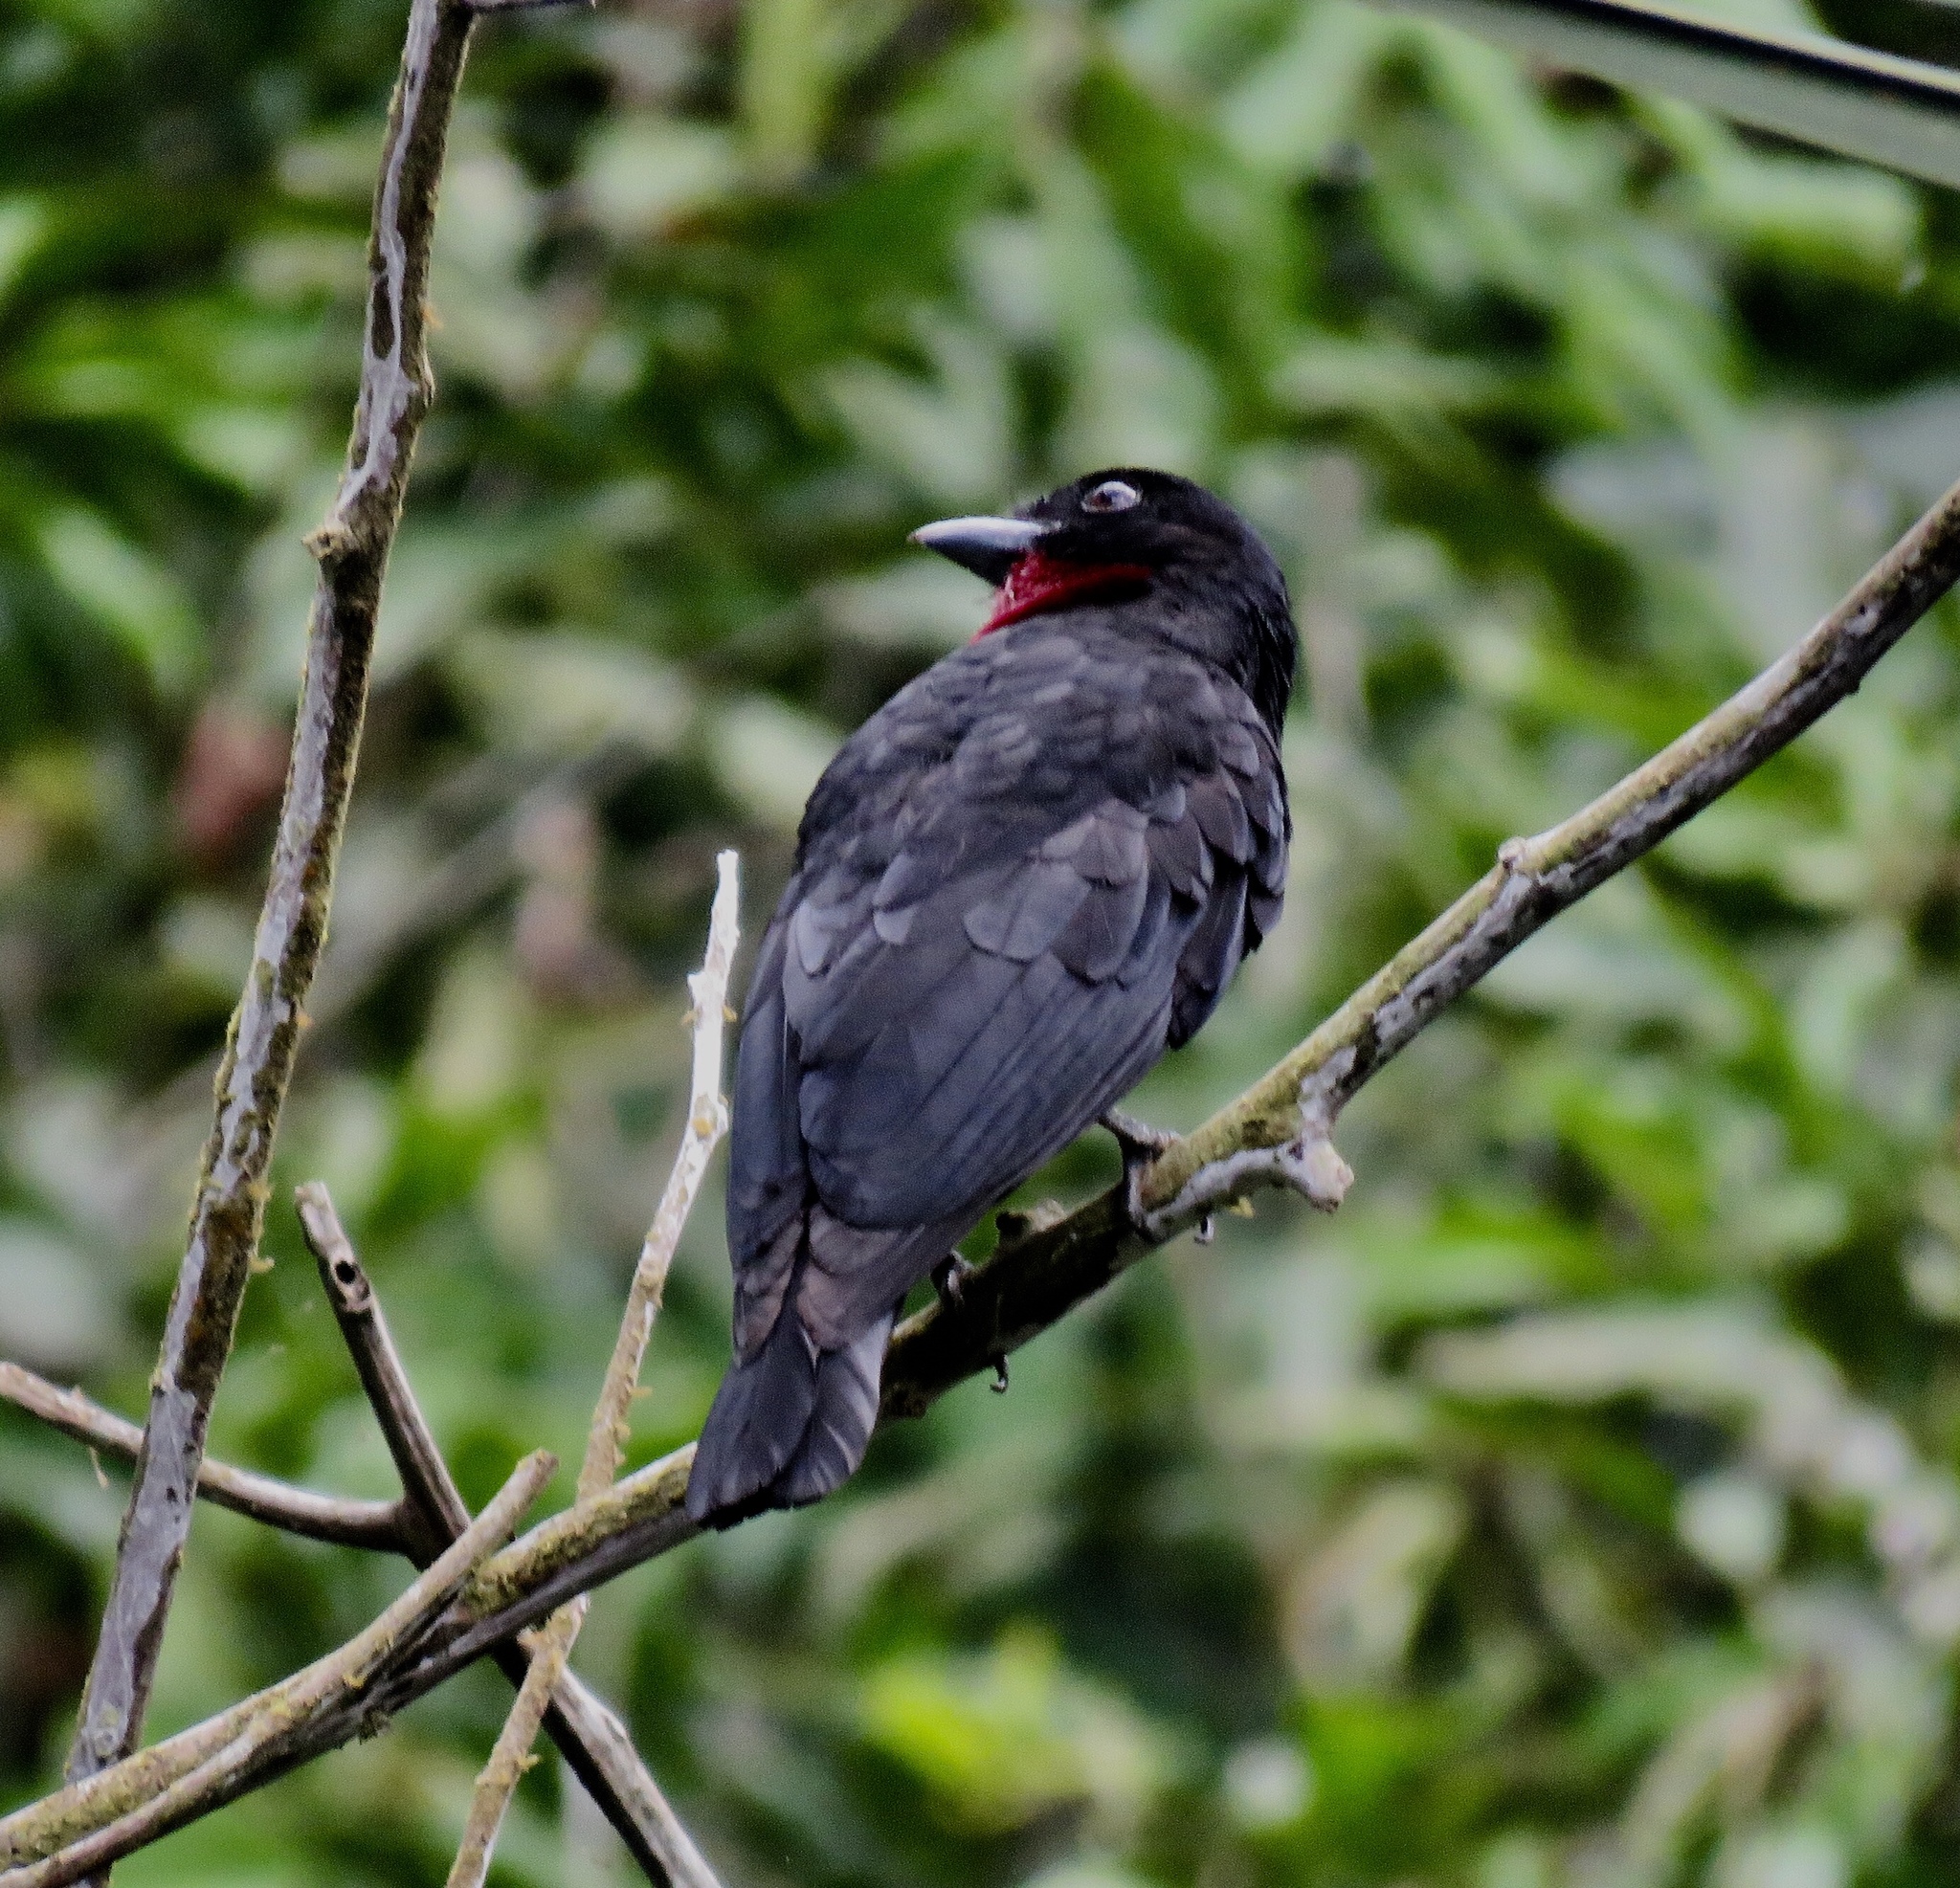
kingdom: Animalia
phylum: Chordata
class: Aves
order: Passeriformes
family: Cotingidae
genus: Querula
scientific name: Querula purpurata
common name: Purple-throated fruitcrow
